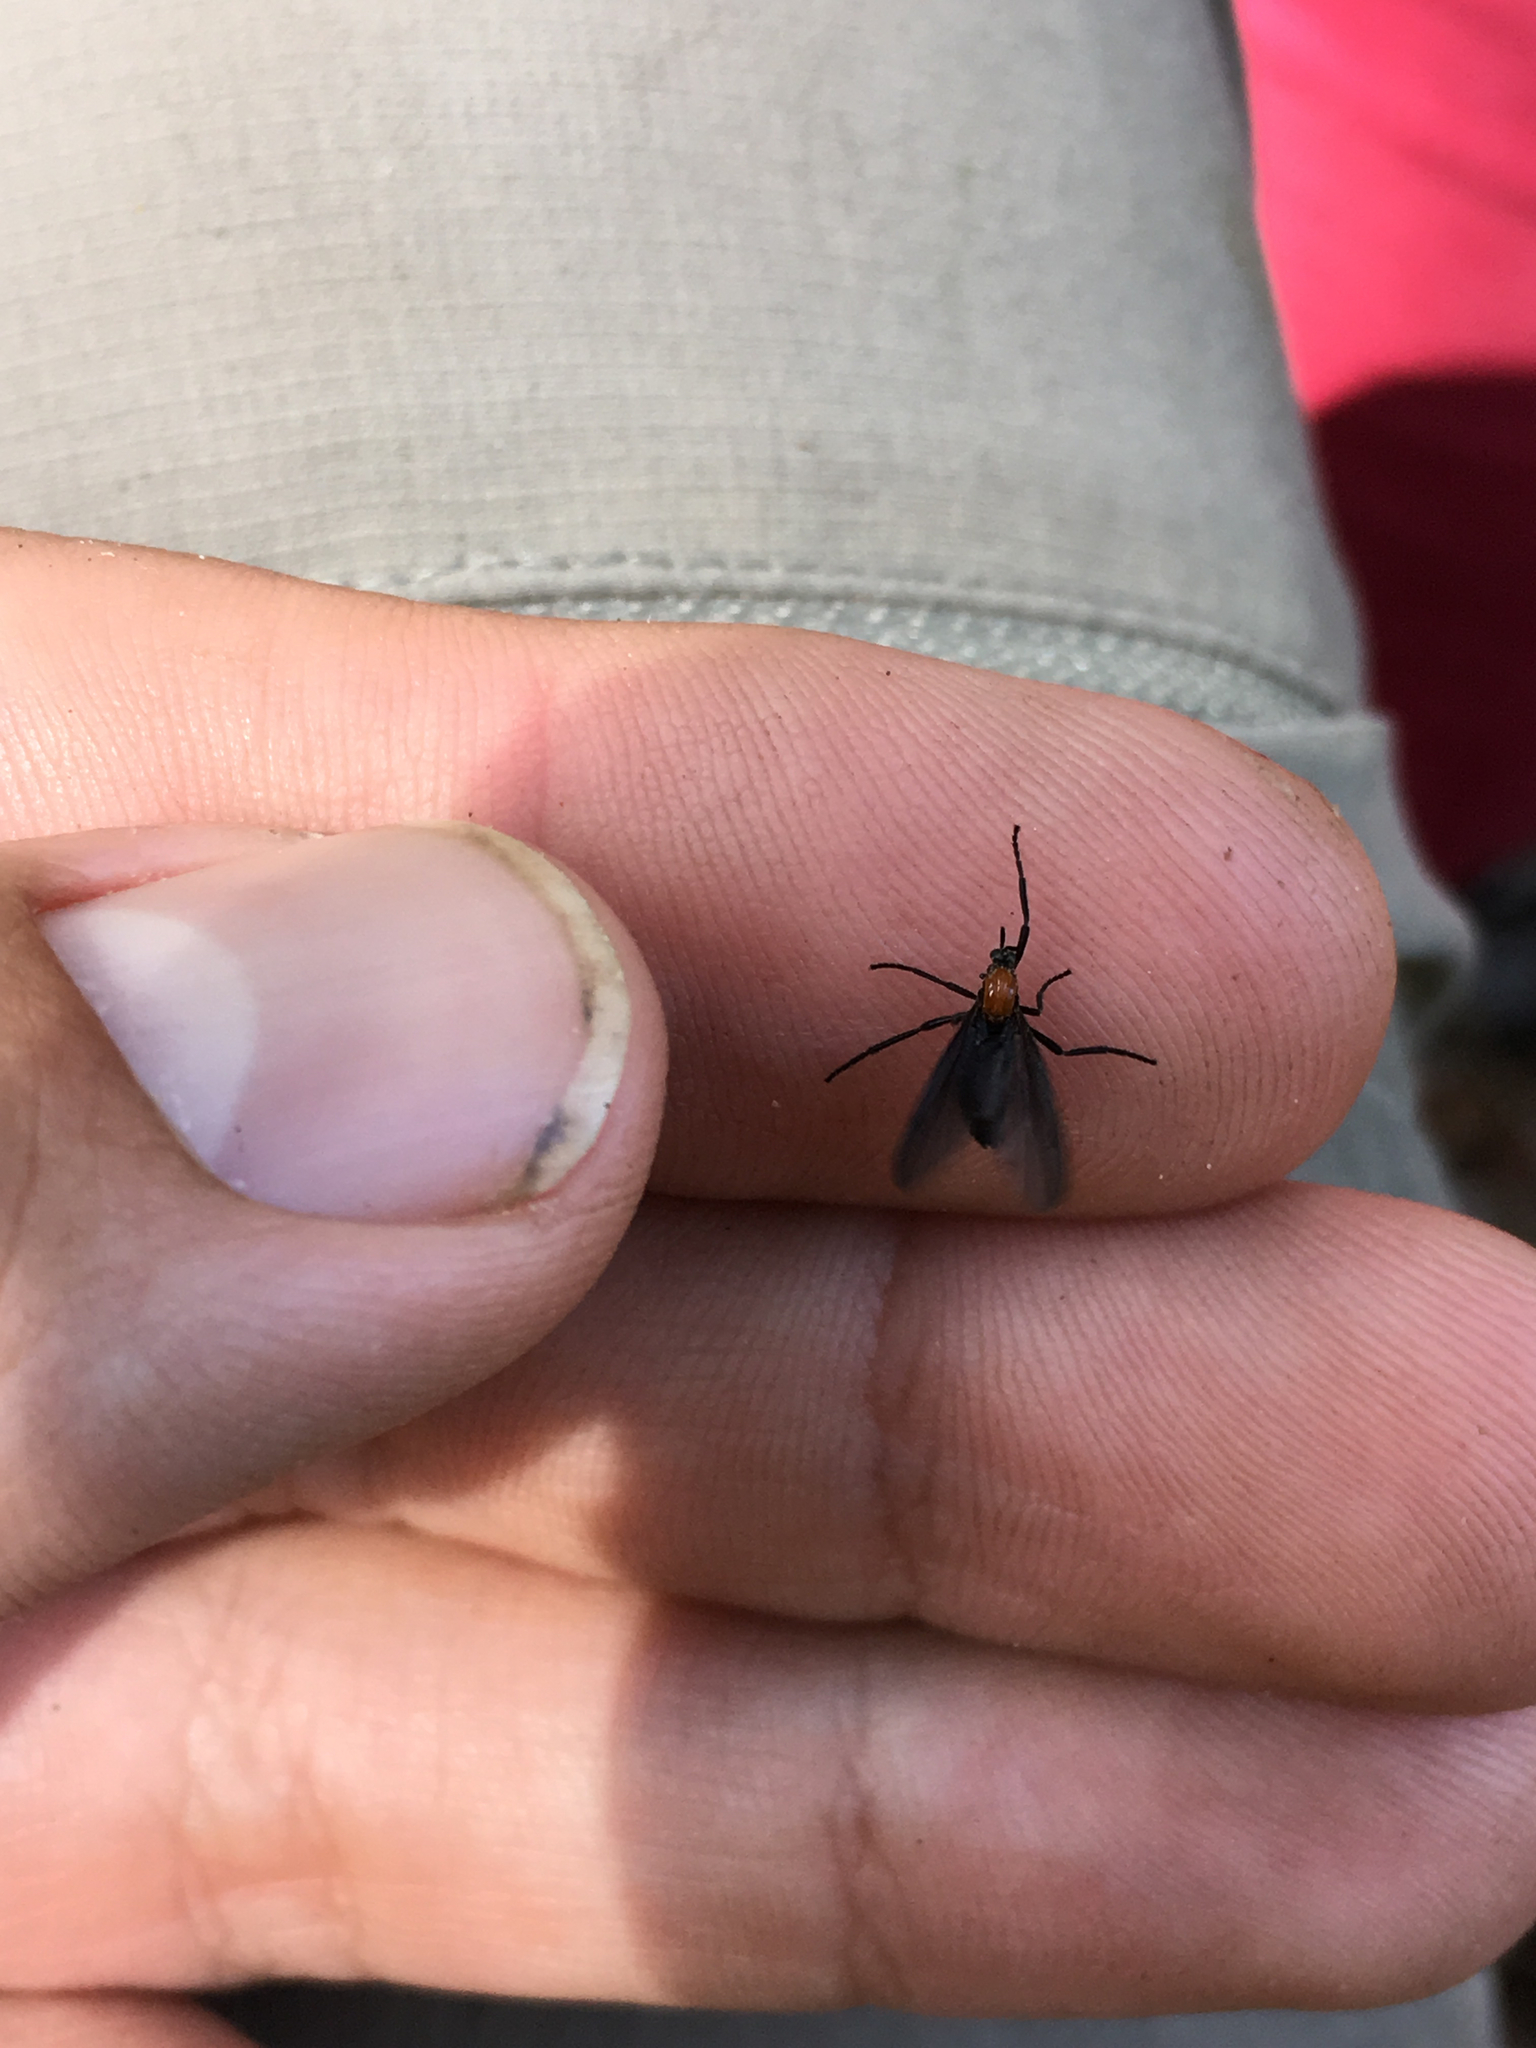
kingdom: Animalia
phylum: Arthropoda
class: Insecta
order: Diptera
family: Bibionidae
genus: Plecia
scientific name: Plecia nearctica
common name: March fly
